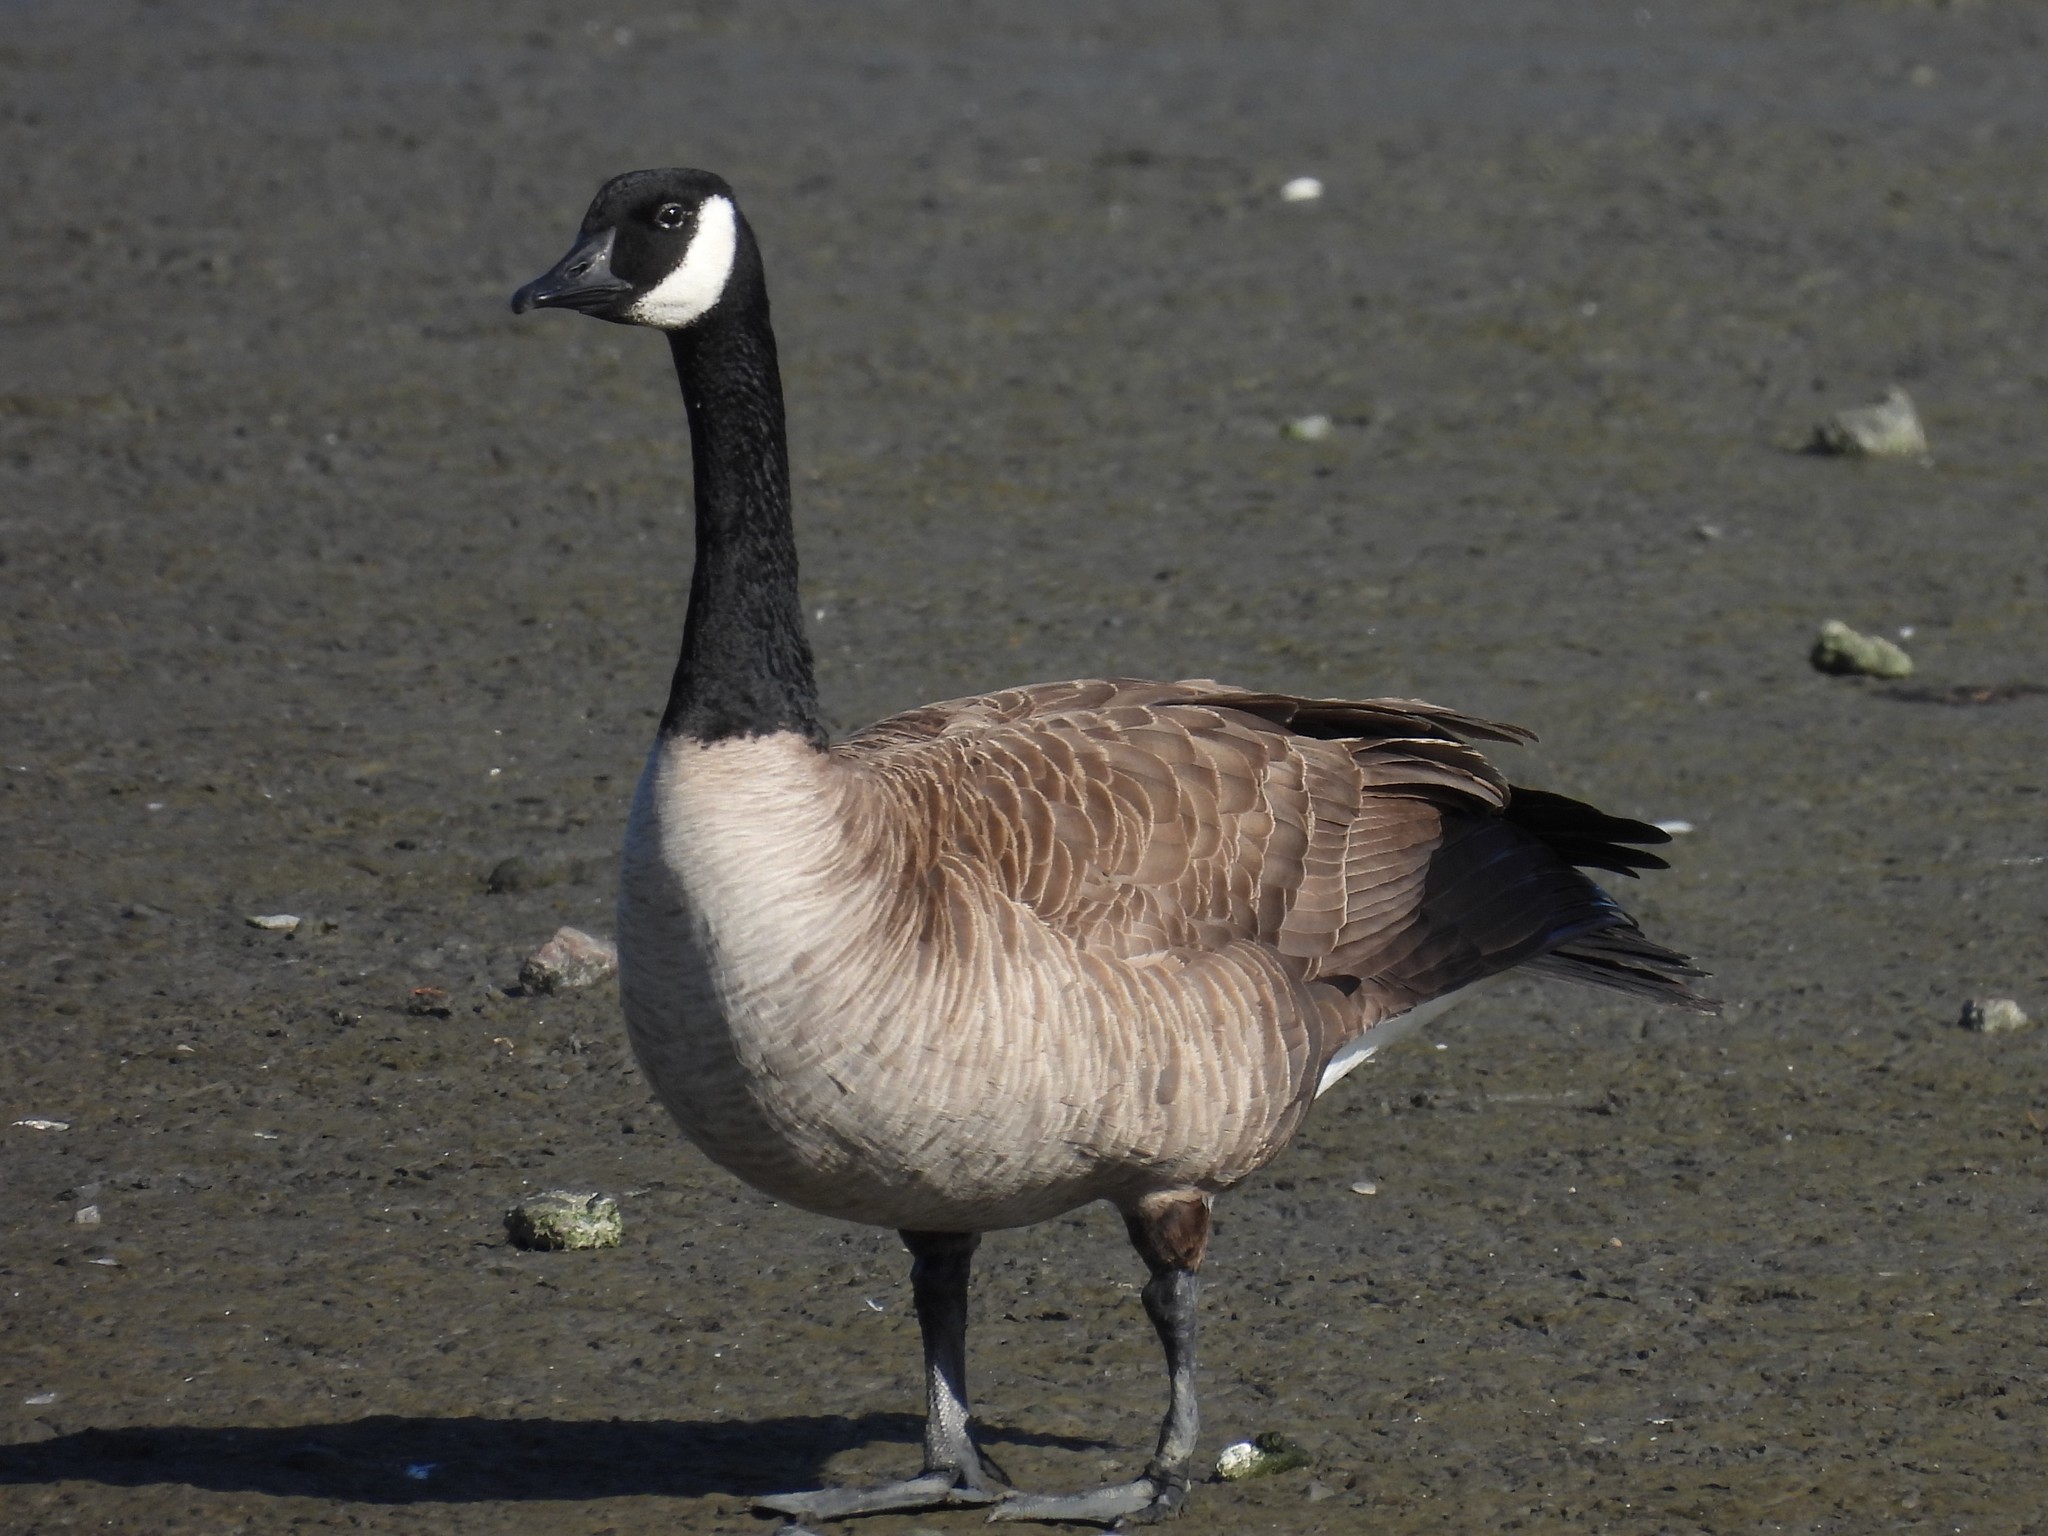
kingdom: Animalia
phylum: Chordata
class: Aves
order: Anseriformes
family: Anatidae
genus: Branta
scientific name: Branta canadensis
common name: Canada goose
